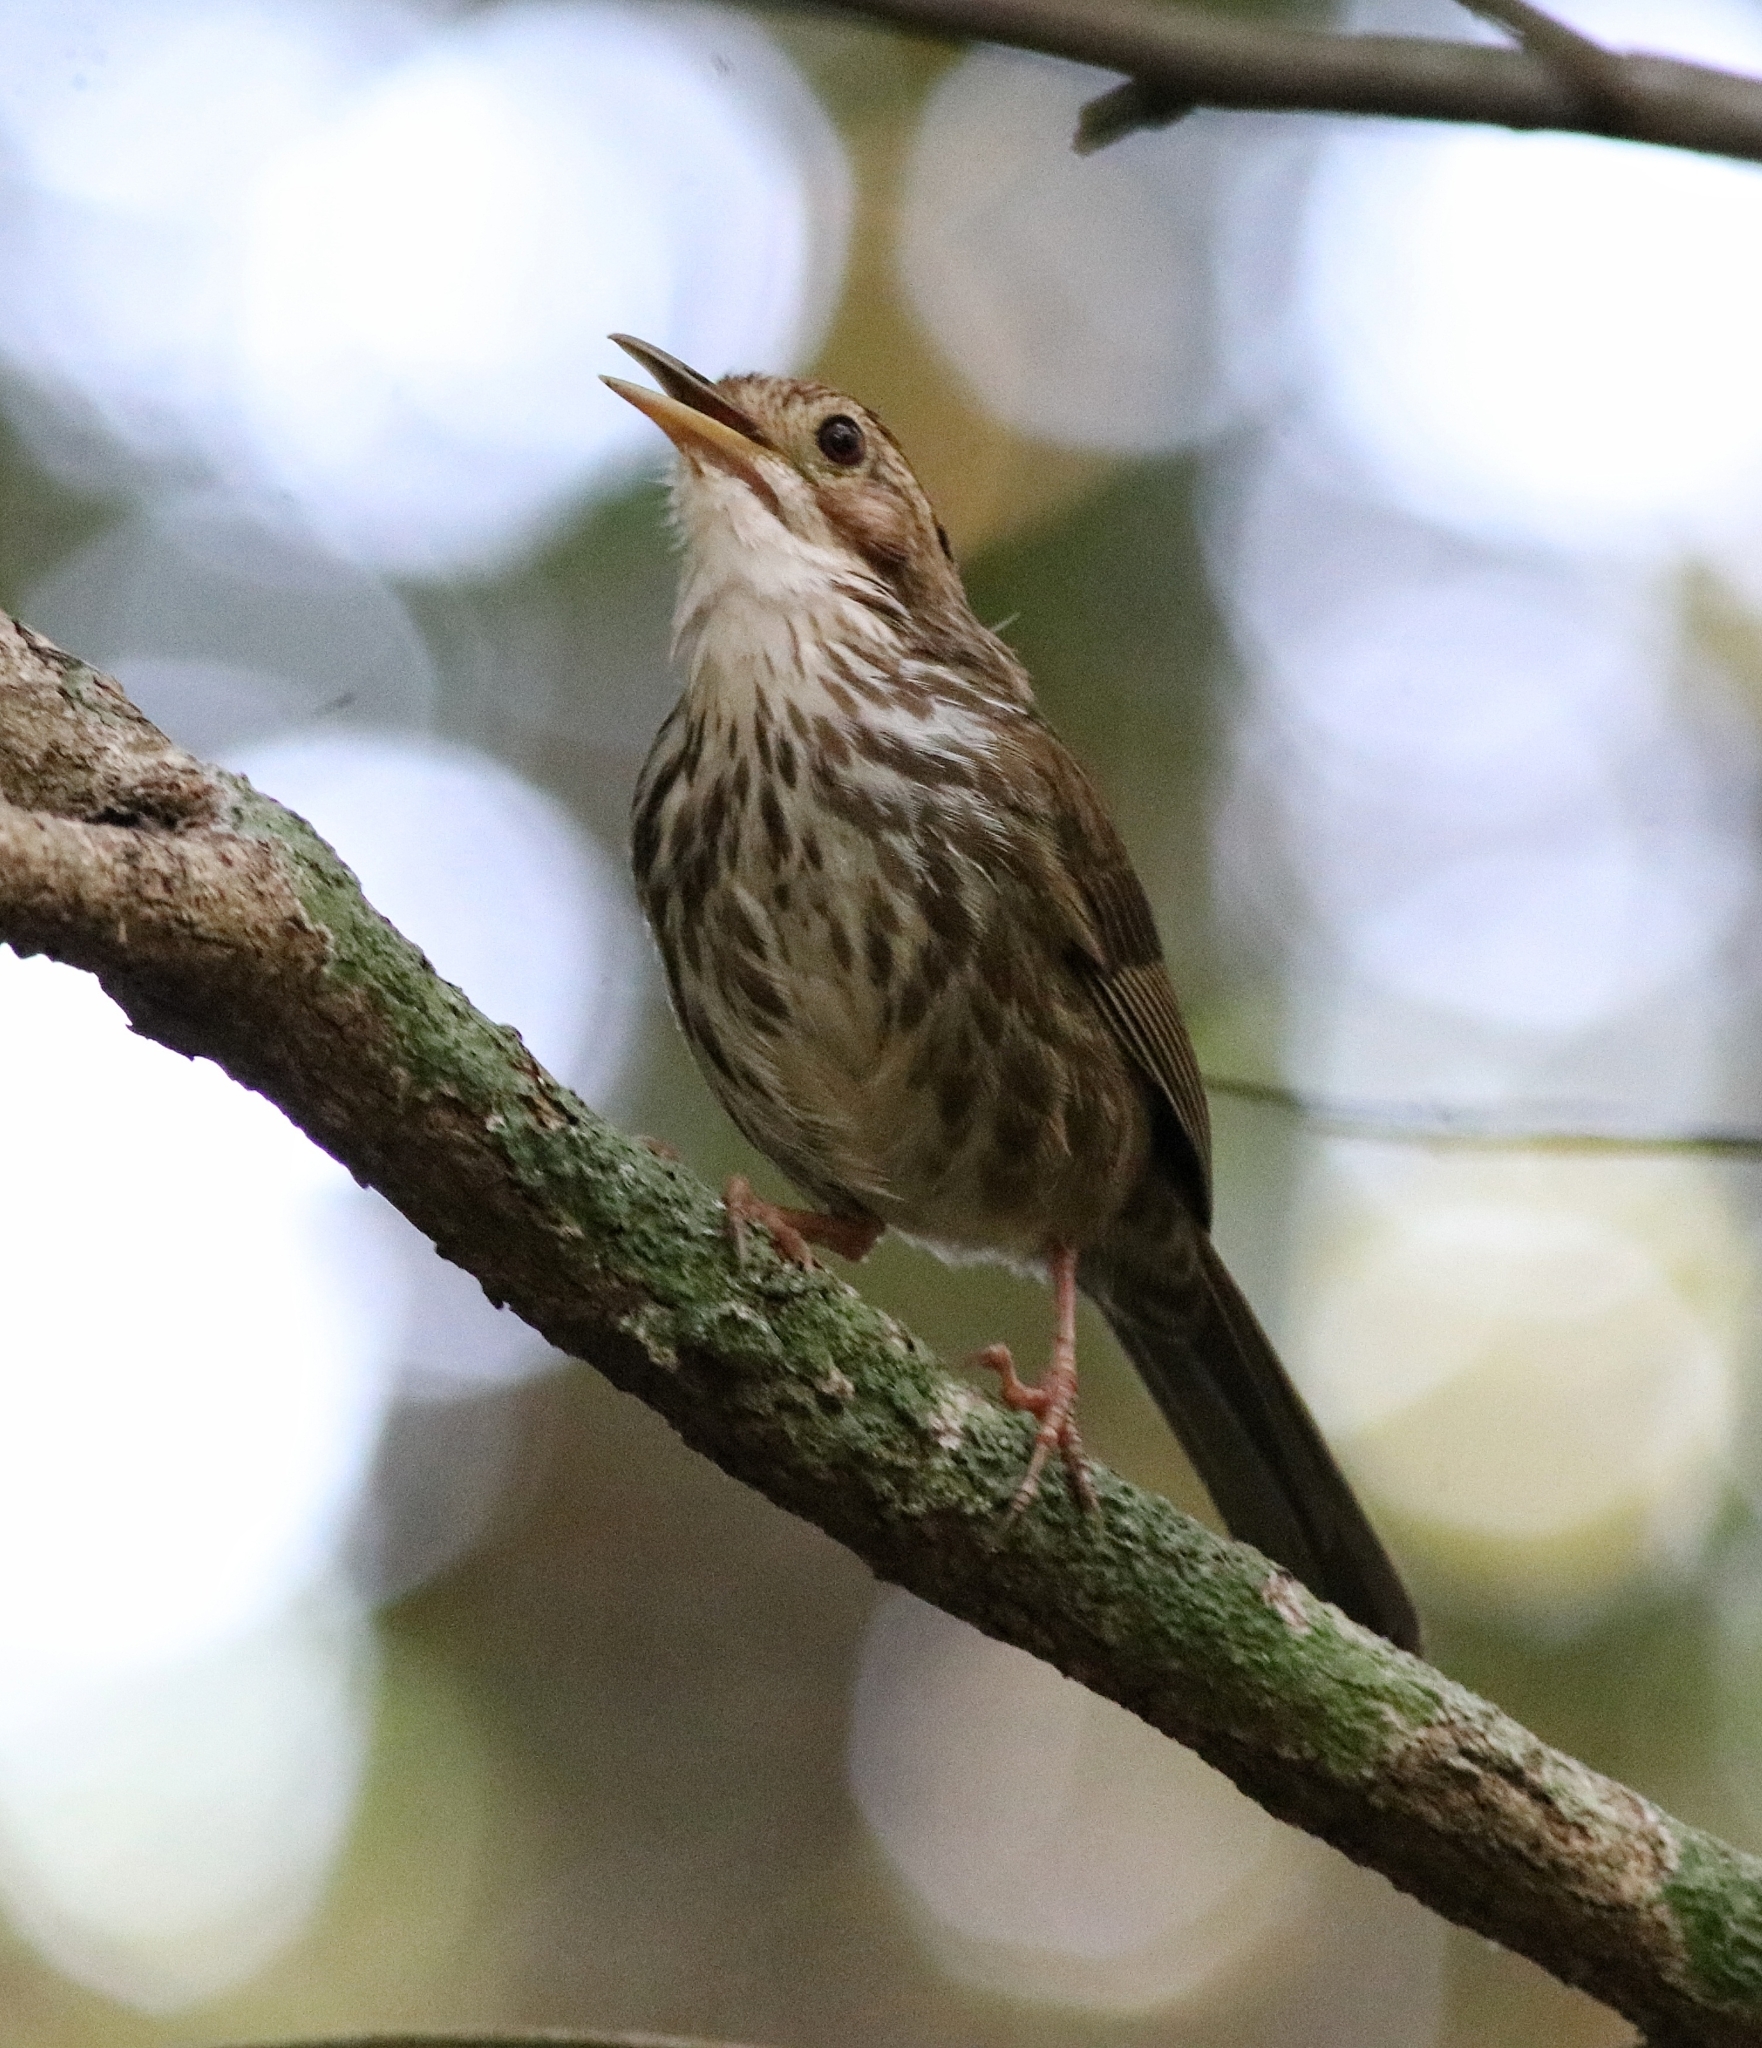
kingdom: Animalia
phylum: Chordata
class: Aves
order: Passeriformes
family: Pellorneidae
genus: Pellorneum
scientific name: Pellorneum ruficeps
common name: Puff-throated babbler
